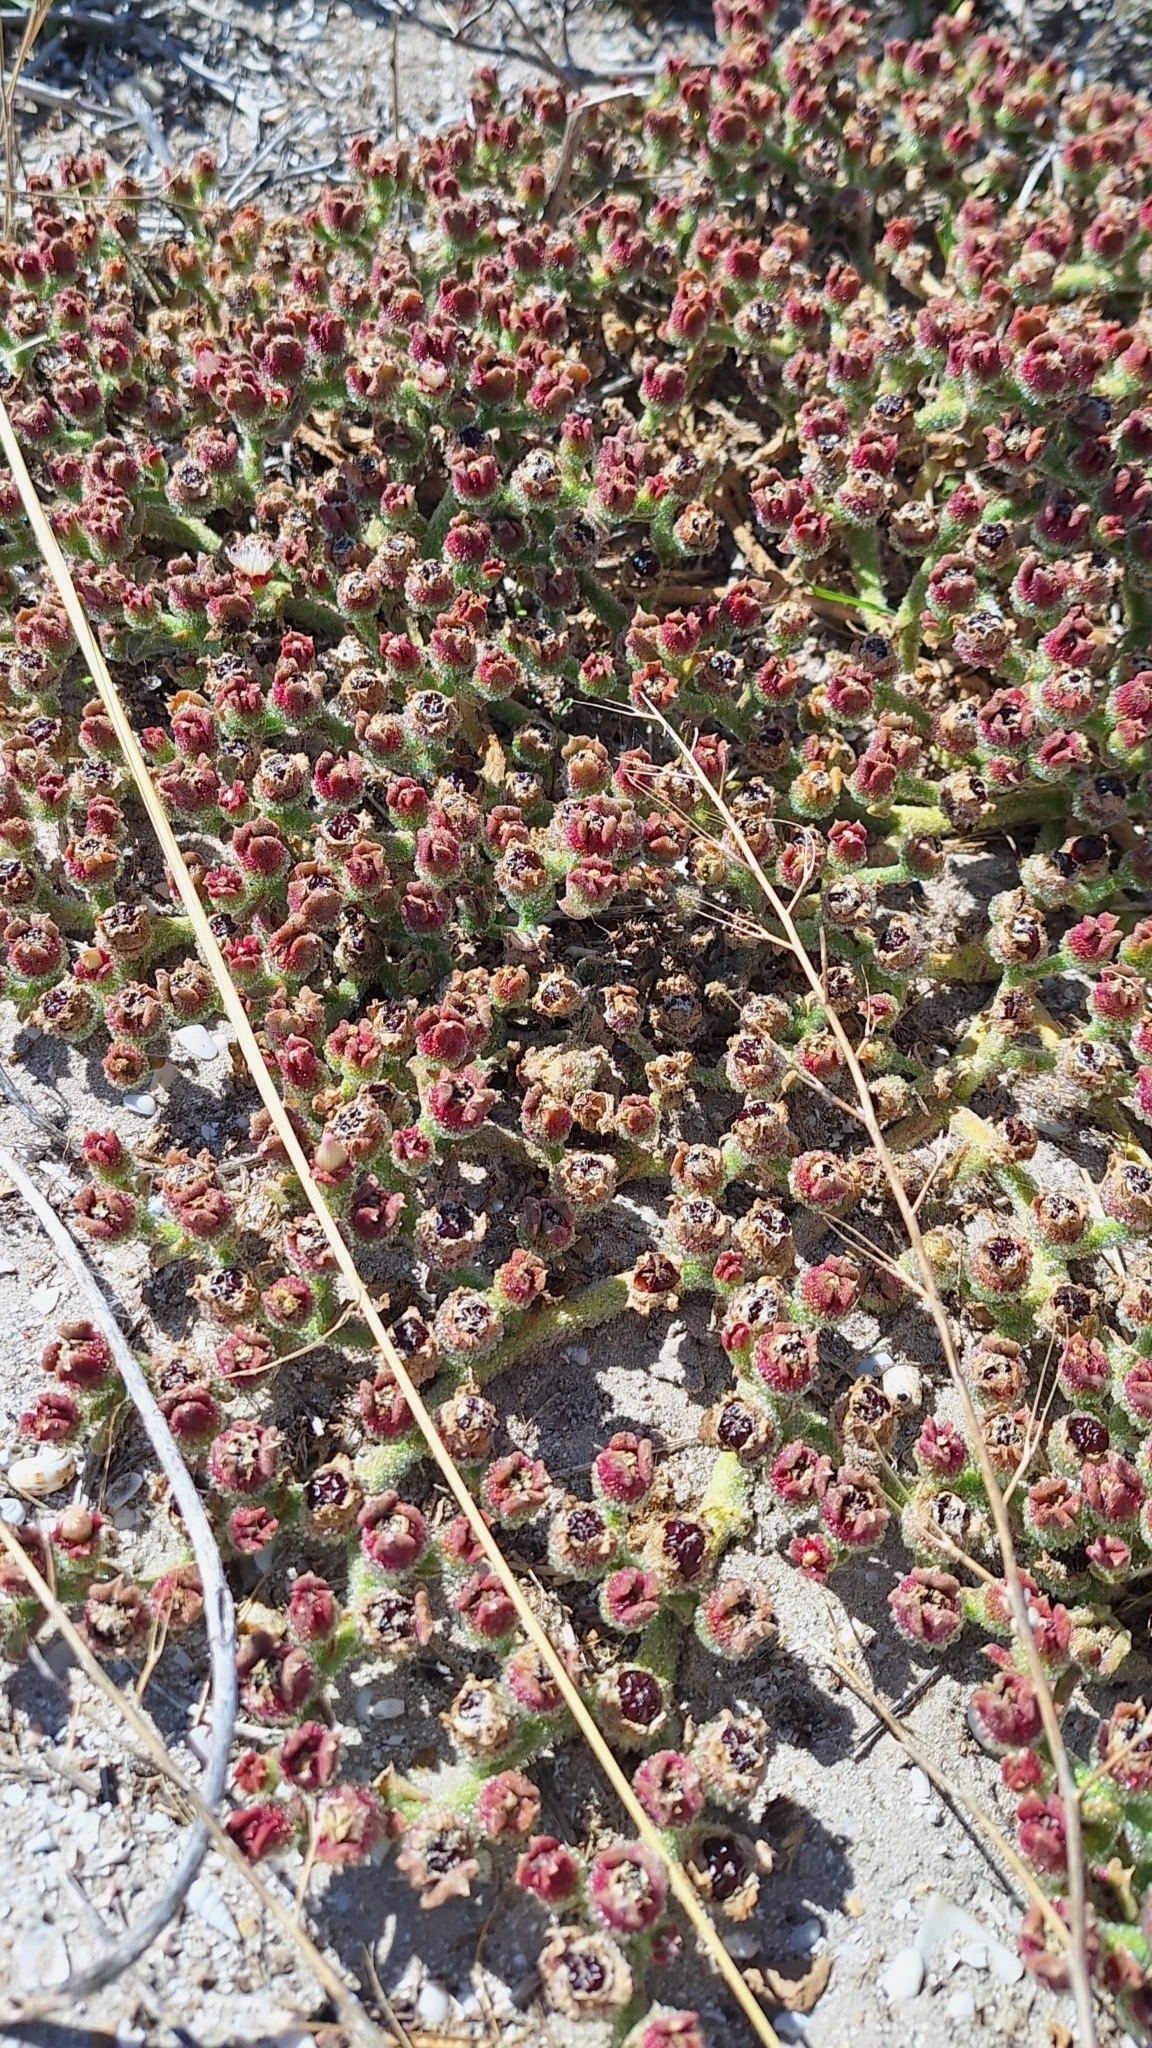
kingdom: Plantae
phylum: Tracheophyta
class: Magnoliopsida
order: Caryophyllales
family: Aizoaceae
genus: Mesembryanthemum
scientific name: Mesembryanthemum crystallinum
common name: Common iceplant
